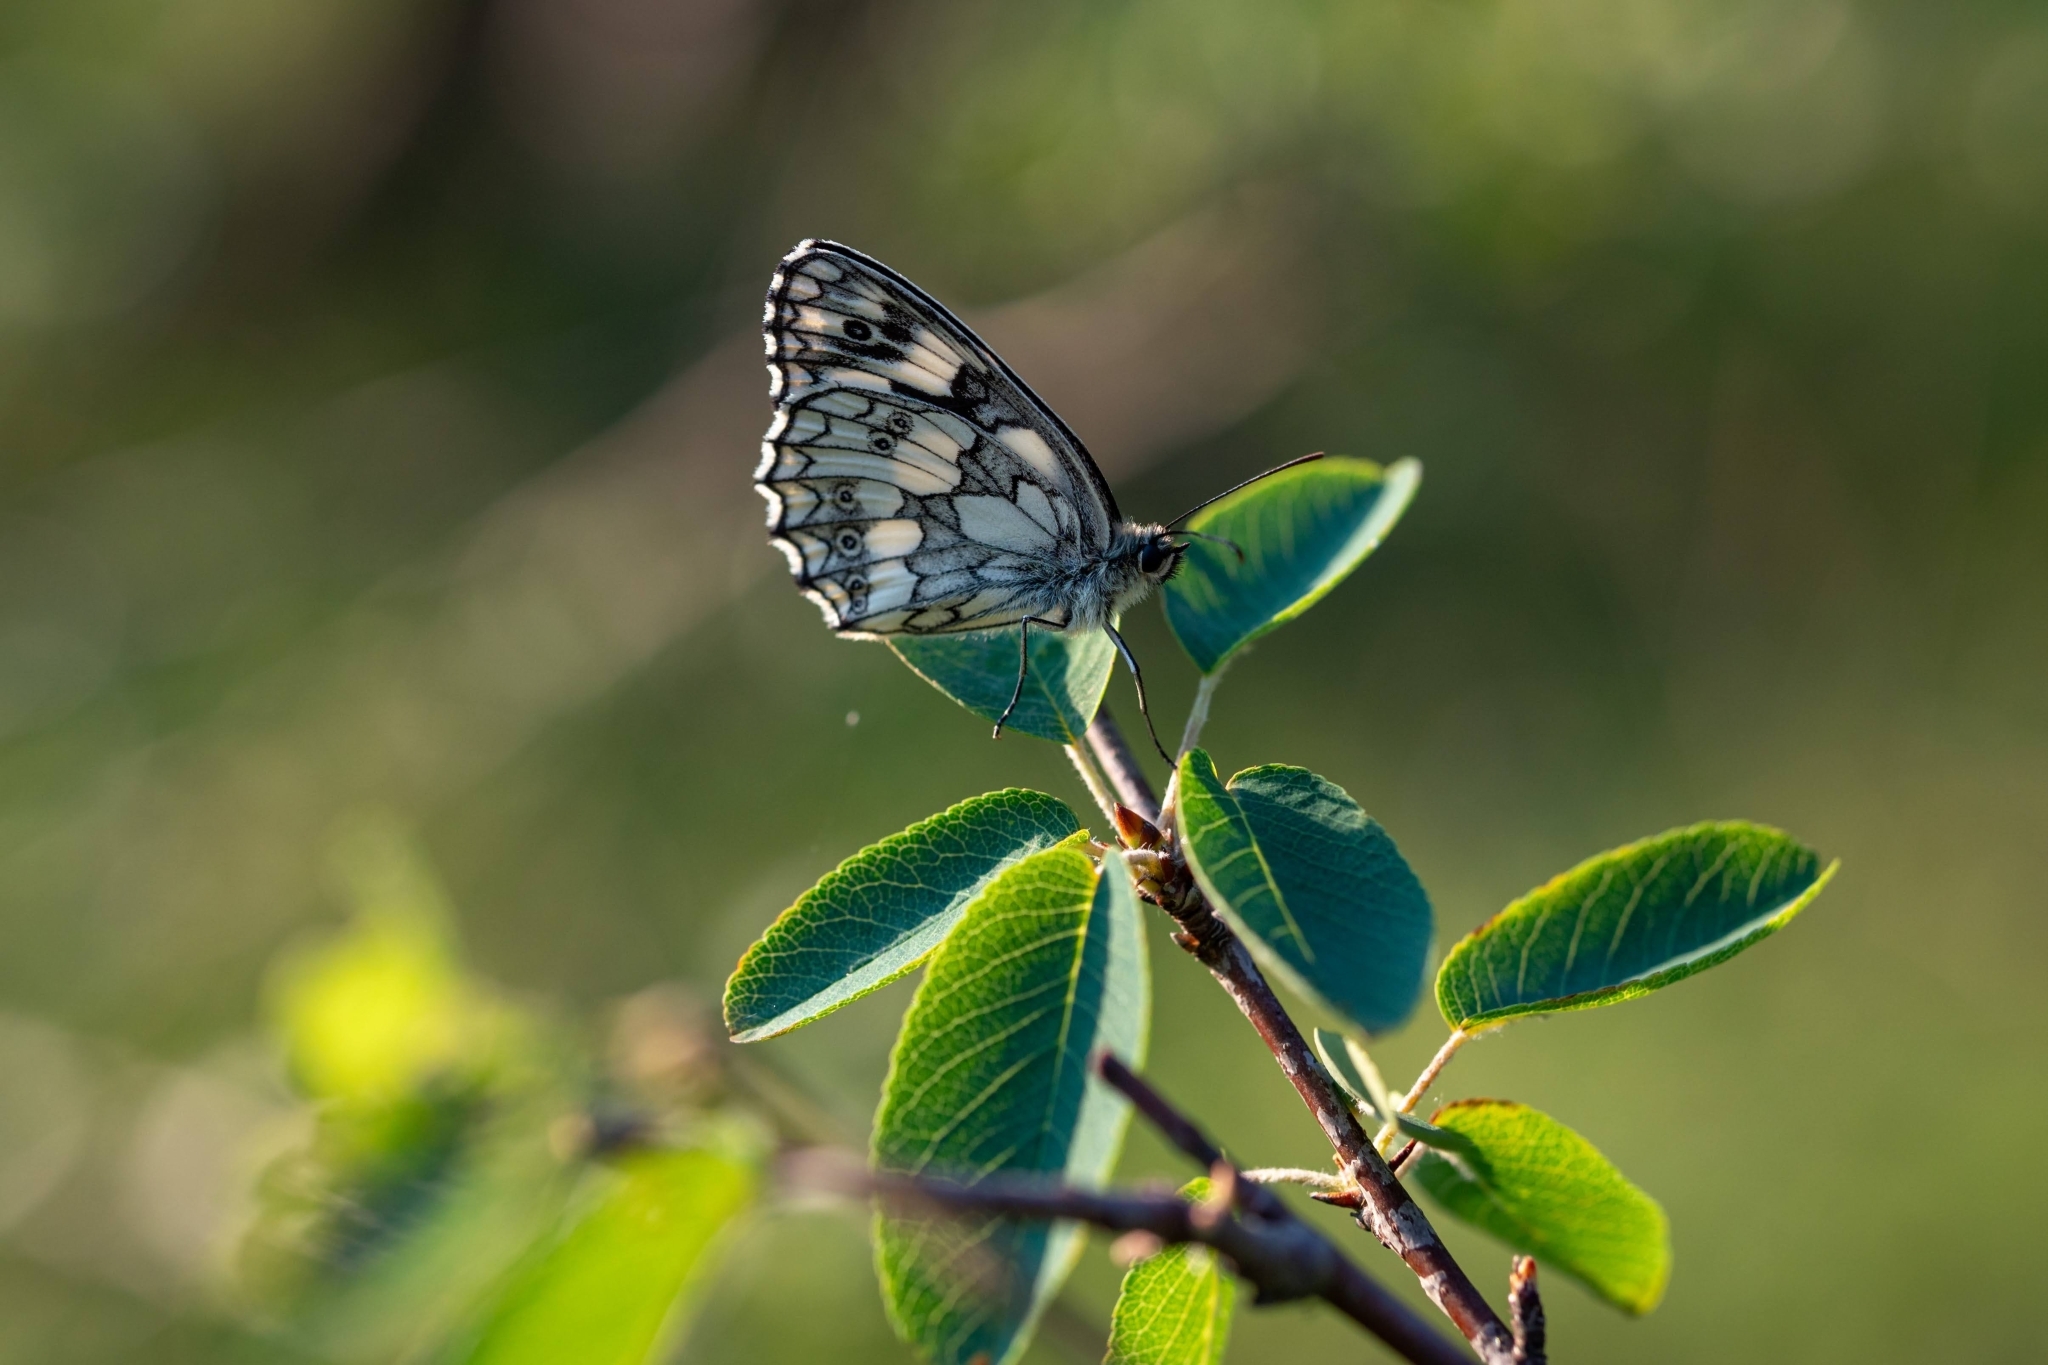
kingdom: Animalia
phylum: Arthropoda
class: Insecta
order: Lepidoptera
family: Nymphalidae
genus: Melanargia
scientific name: Melanargia galathea
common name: Marbled white
